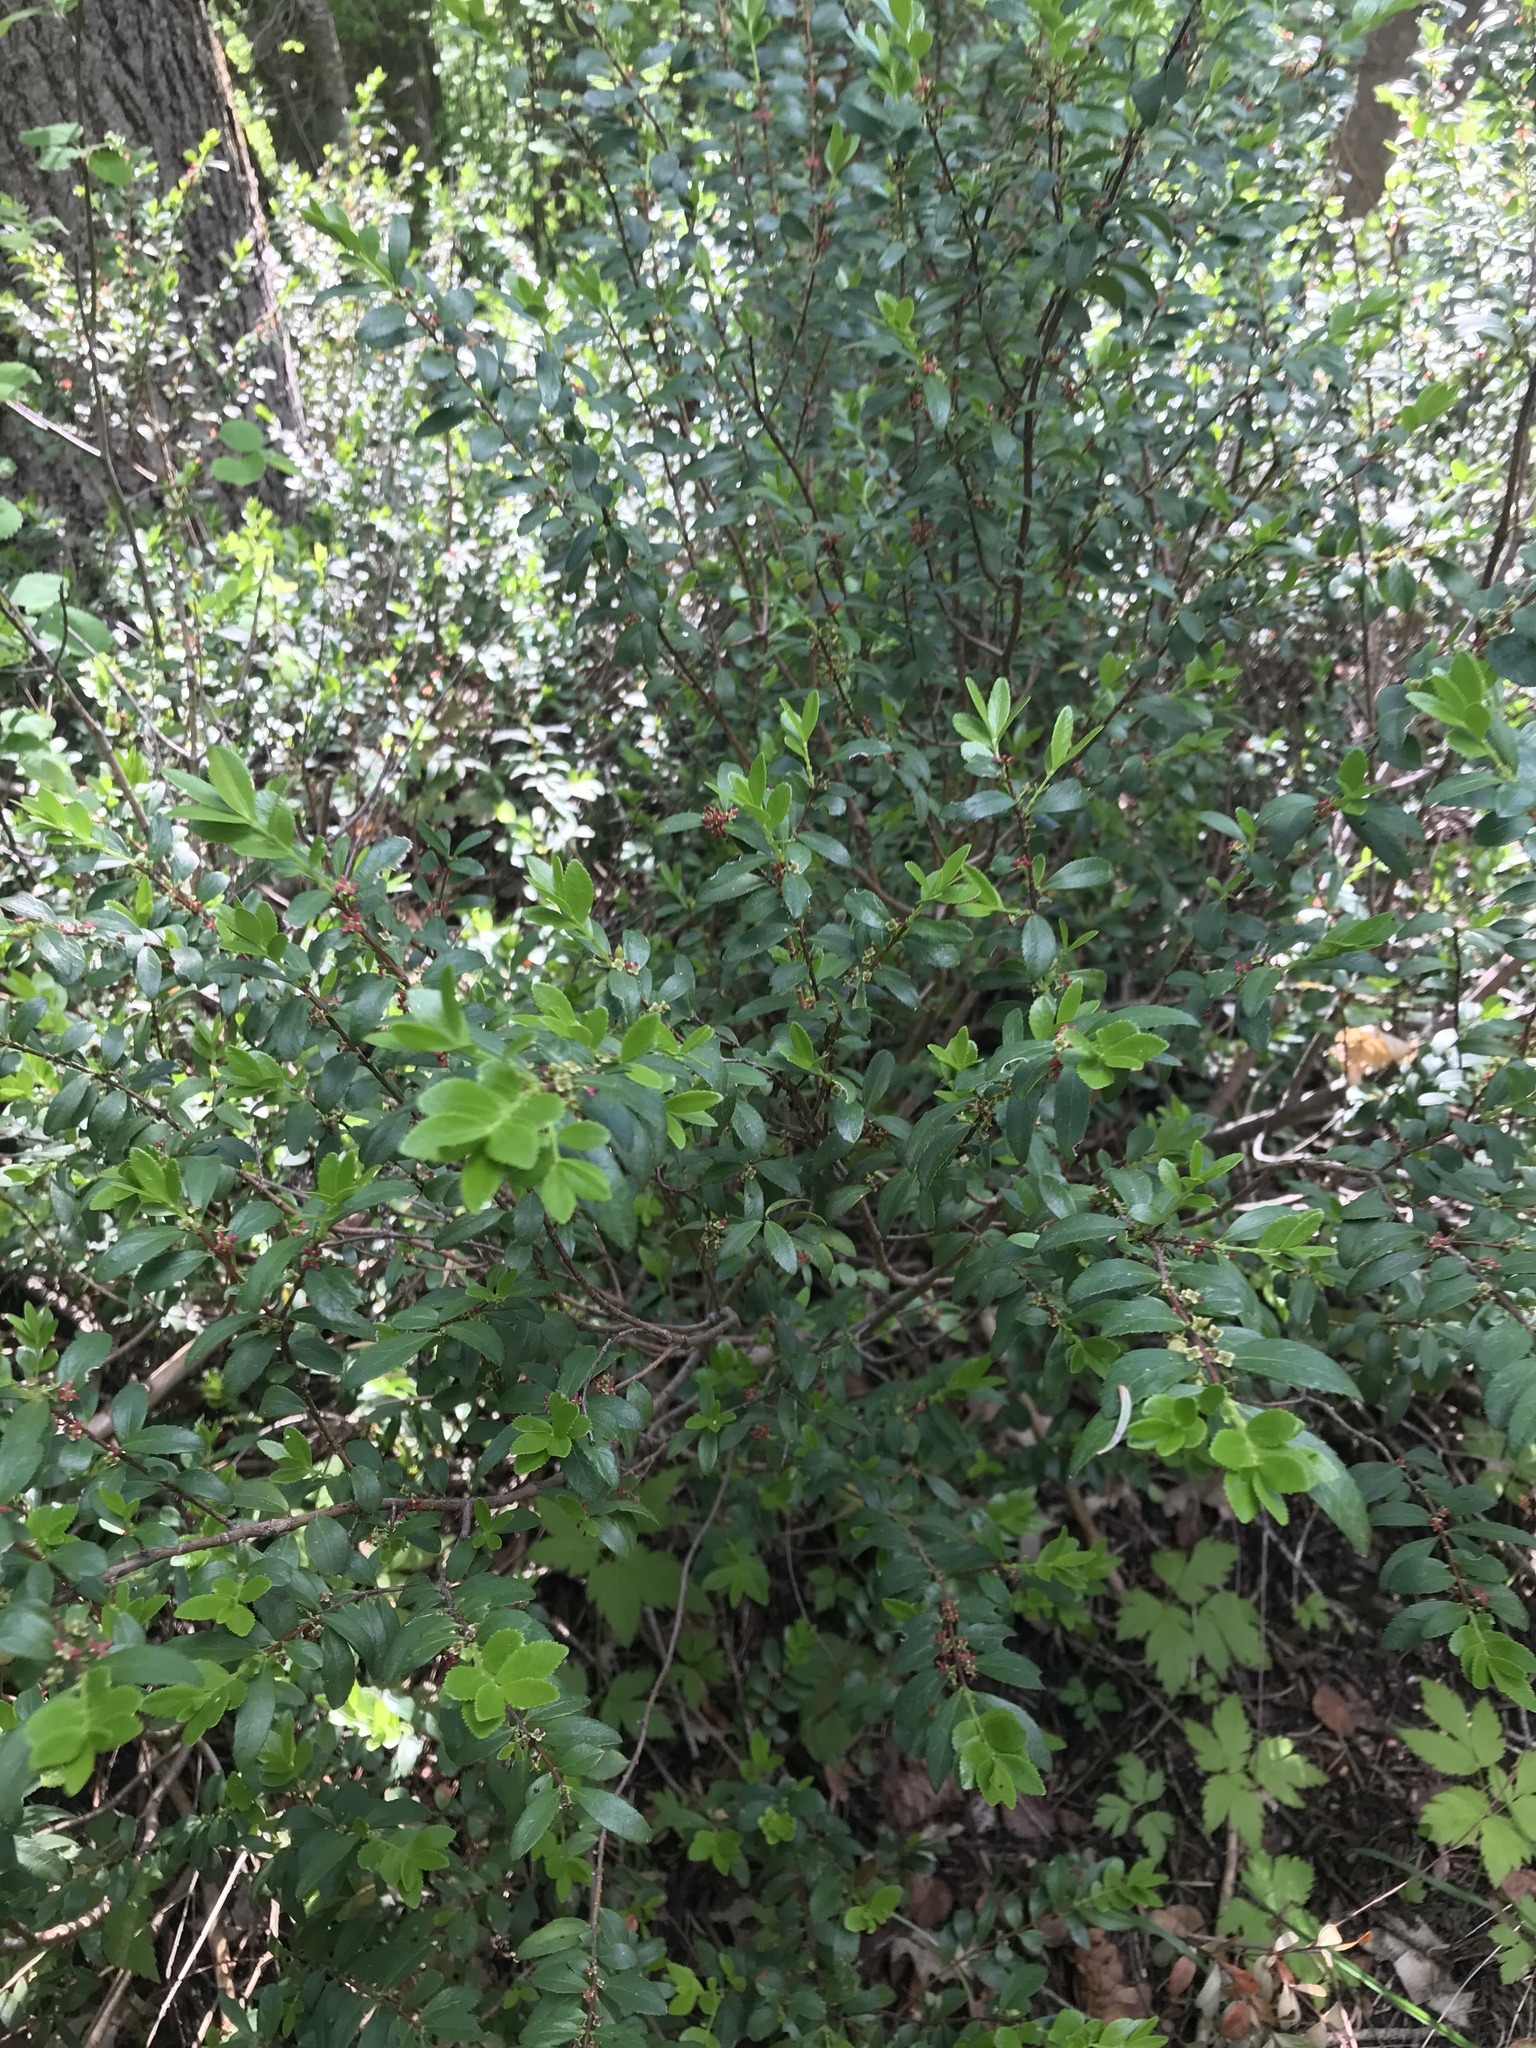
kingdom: Plantae
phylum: Tracheophyta
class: Magnoliopsida
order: Celastrales
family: Celastraceae
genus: Paxistima
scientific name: Paxistima myrsinites
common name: Mountain-lover
